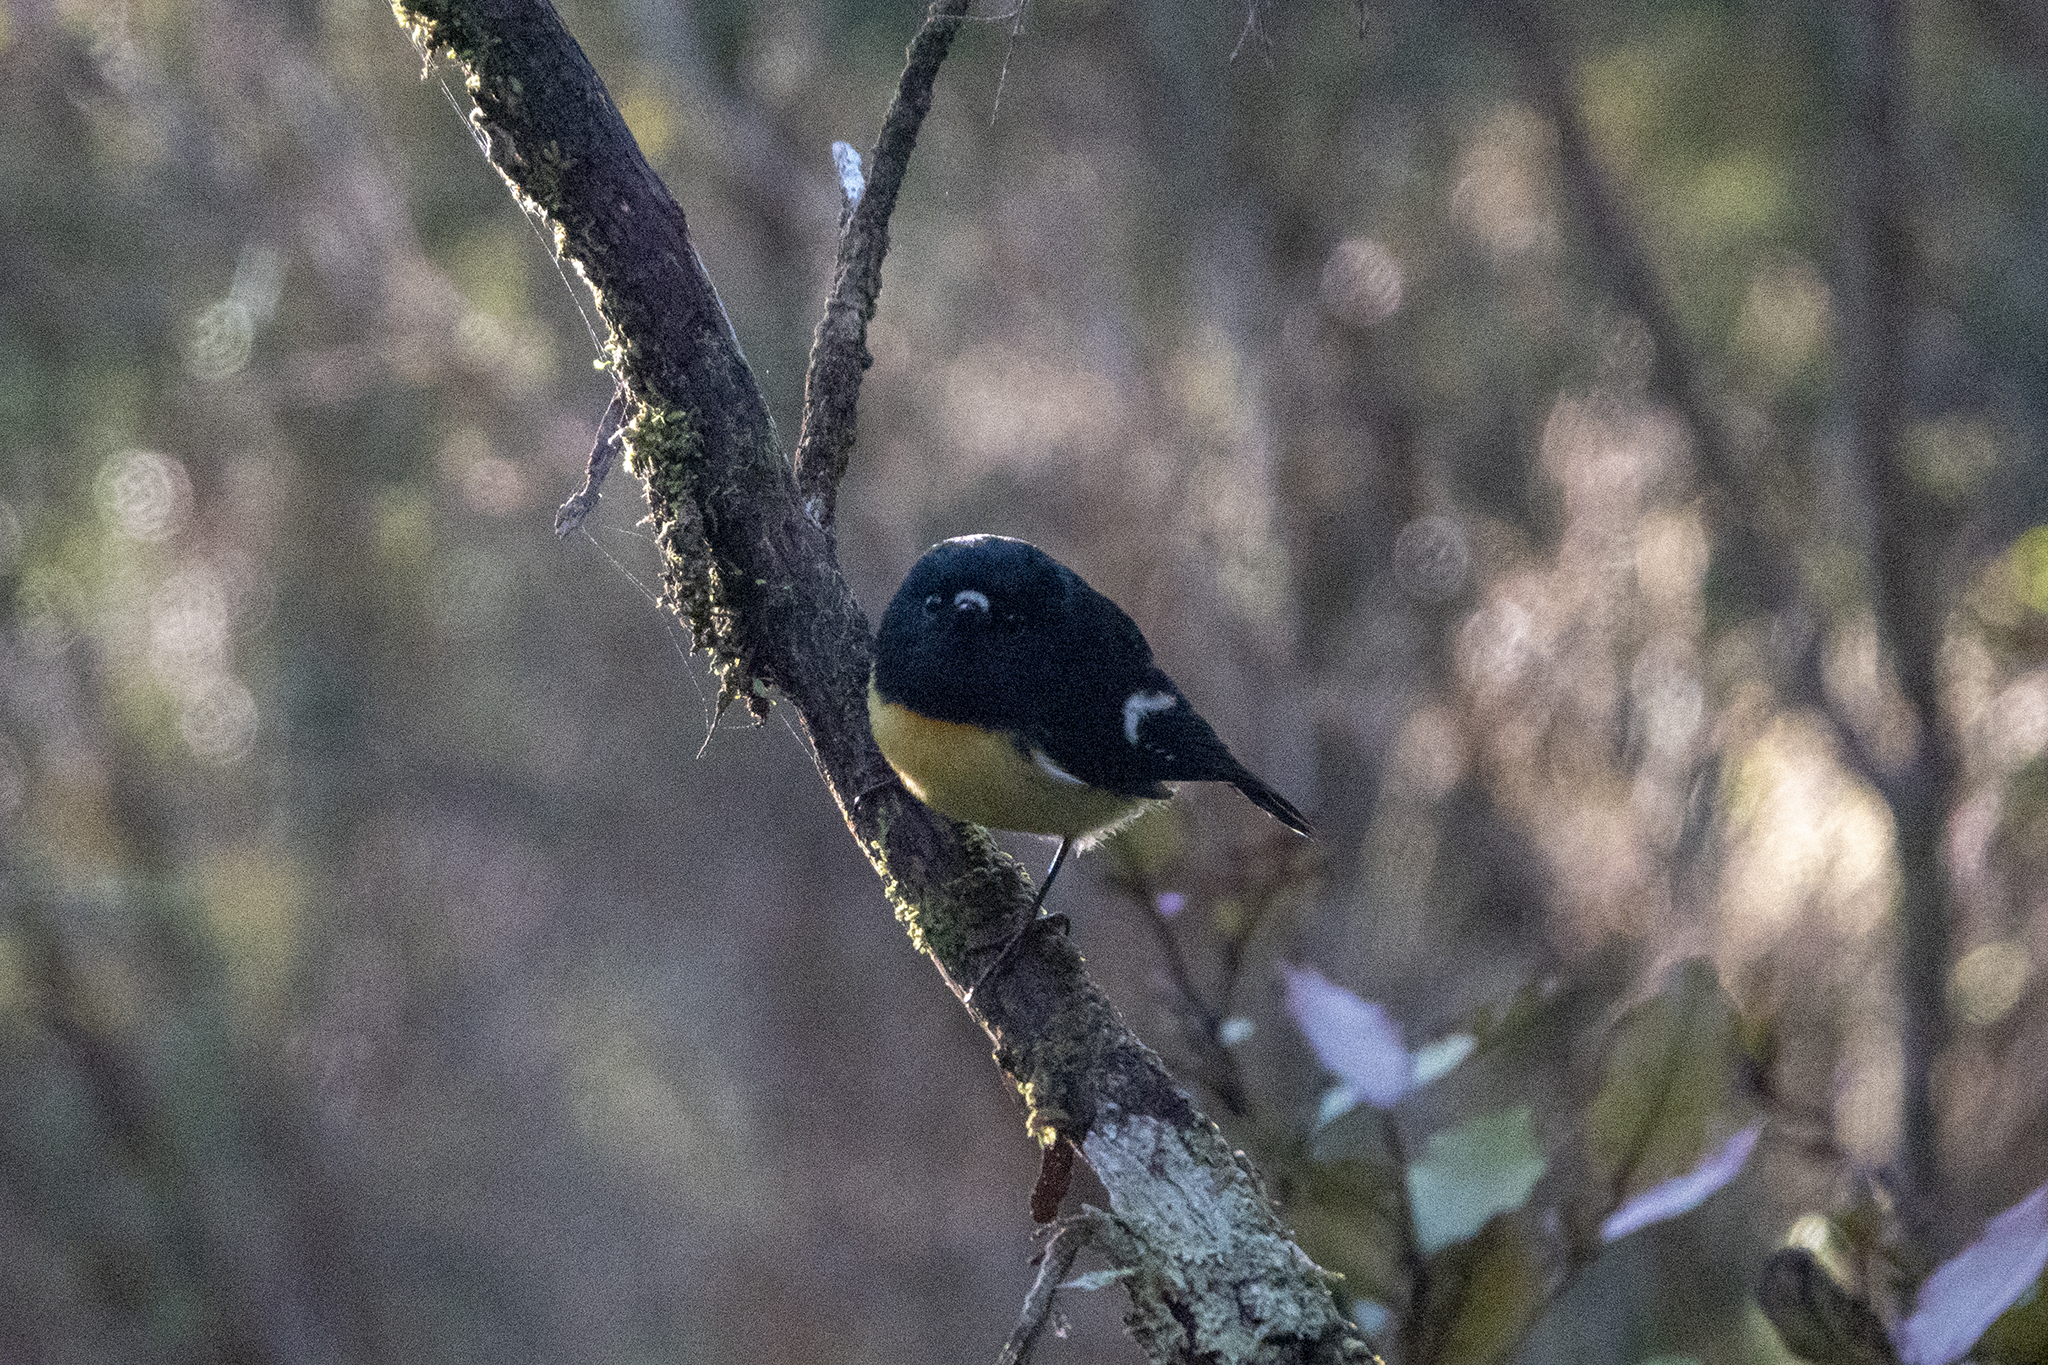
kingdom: Animalia
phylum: Chordata
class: Aves
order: Passeriformes
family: Petroicidae
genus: Petroica
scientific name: Petroica macrocephala
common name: Tomtit
